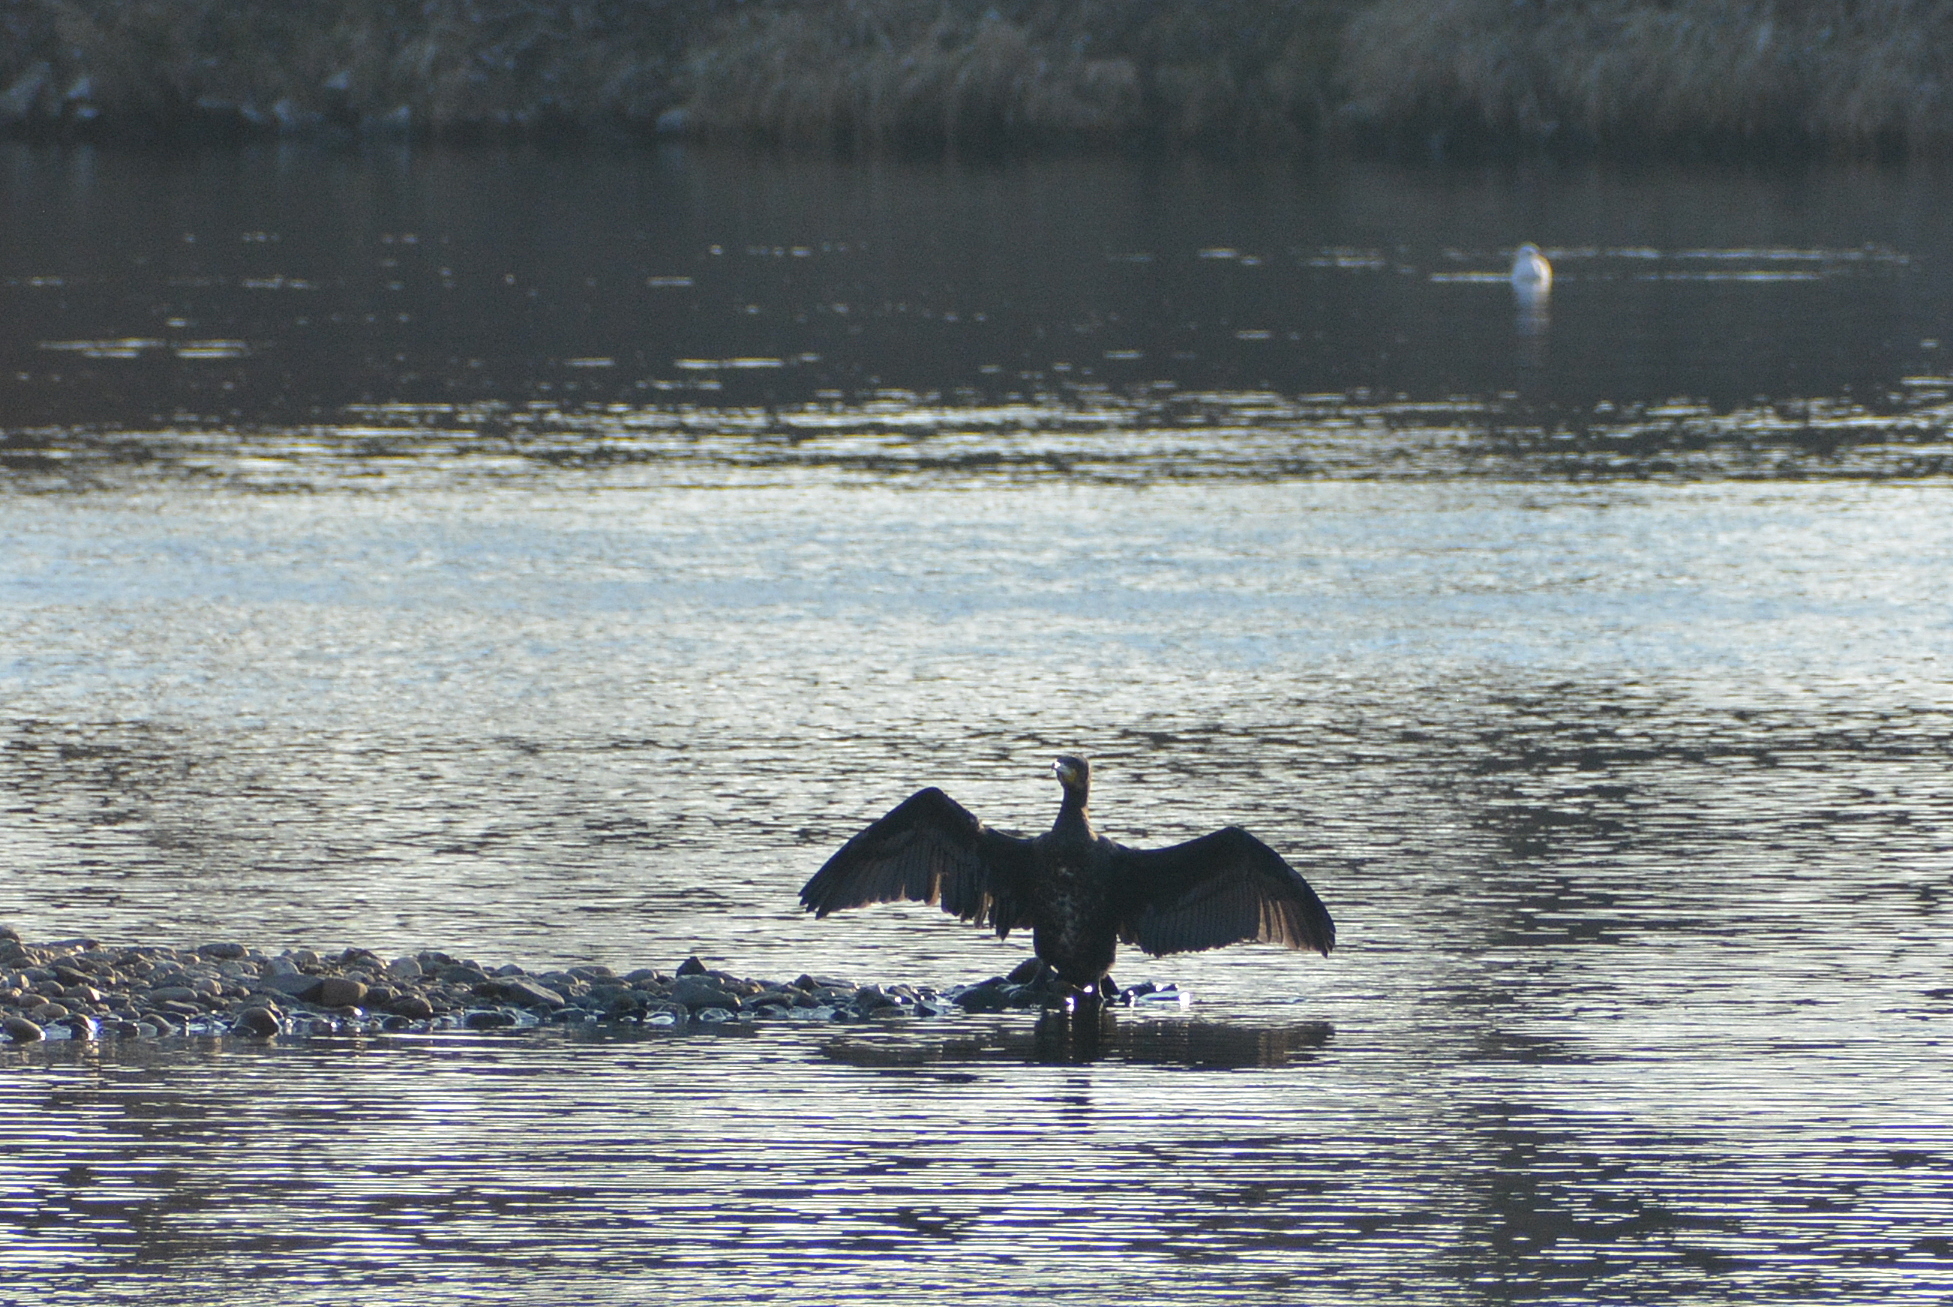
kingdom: Animalia
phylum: Chordata
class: Aves
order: Suliformes
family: Phalacrocoracidae
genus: Phalacrocorax
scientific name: Phalacrocorax carbo
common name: Great cormorant
